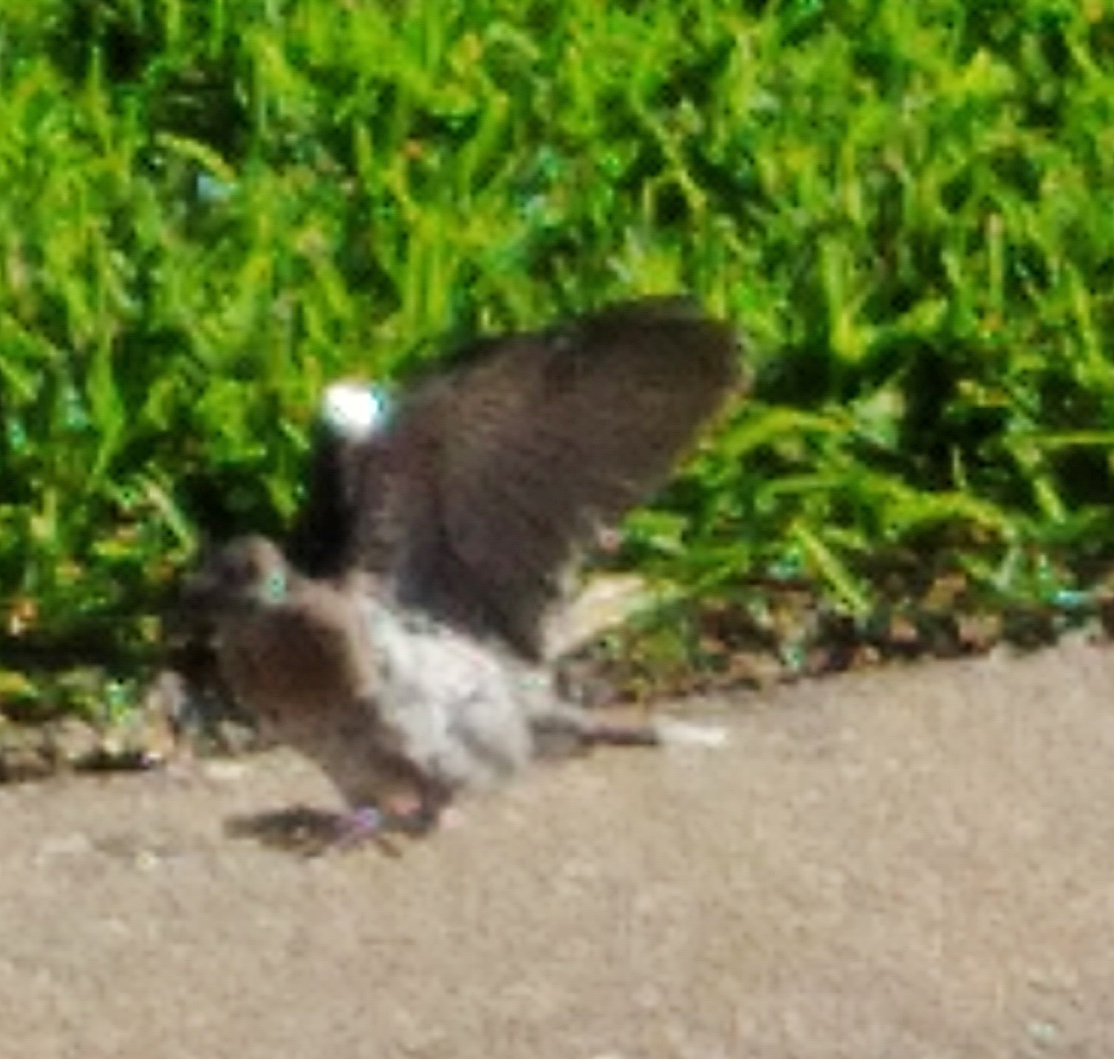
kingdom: Animalia
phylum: Chordata
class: Aves
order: Columbiformes
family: Columbidae
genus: Zenaida
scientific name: Zenaida asiatica
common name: White-winged dove
